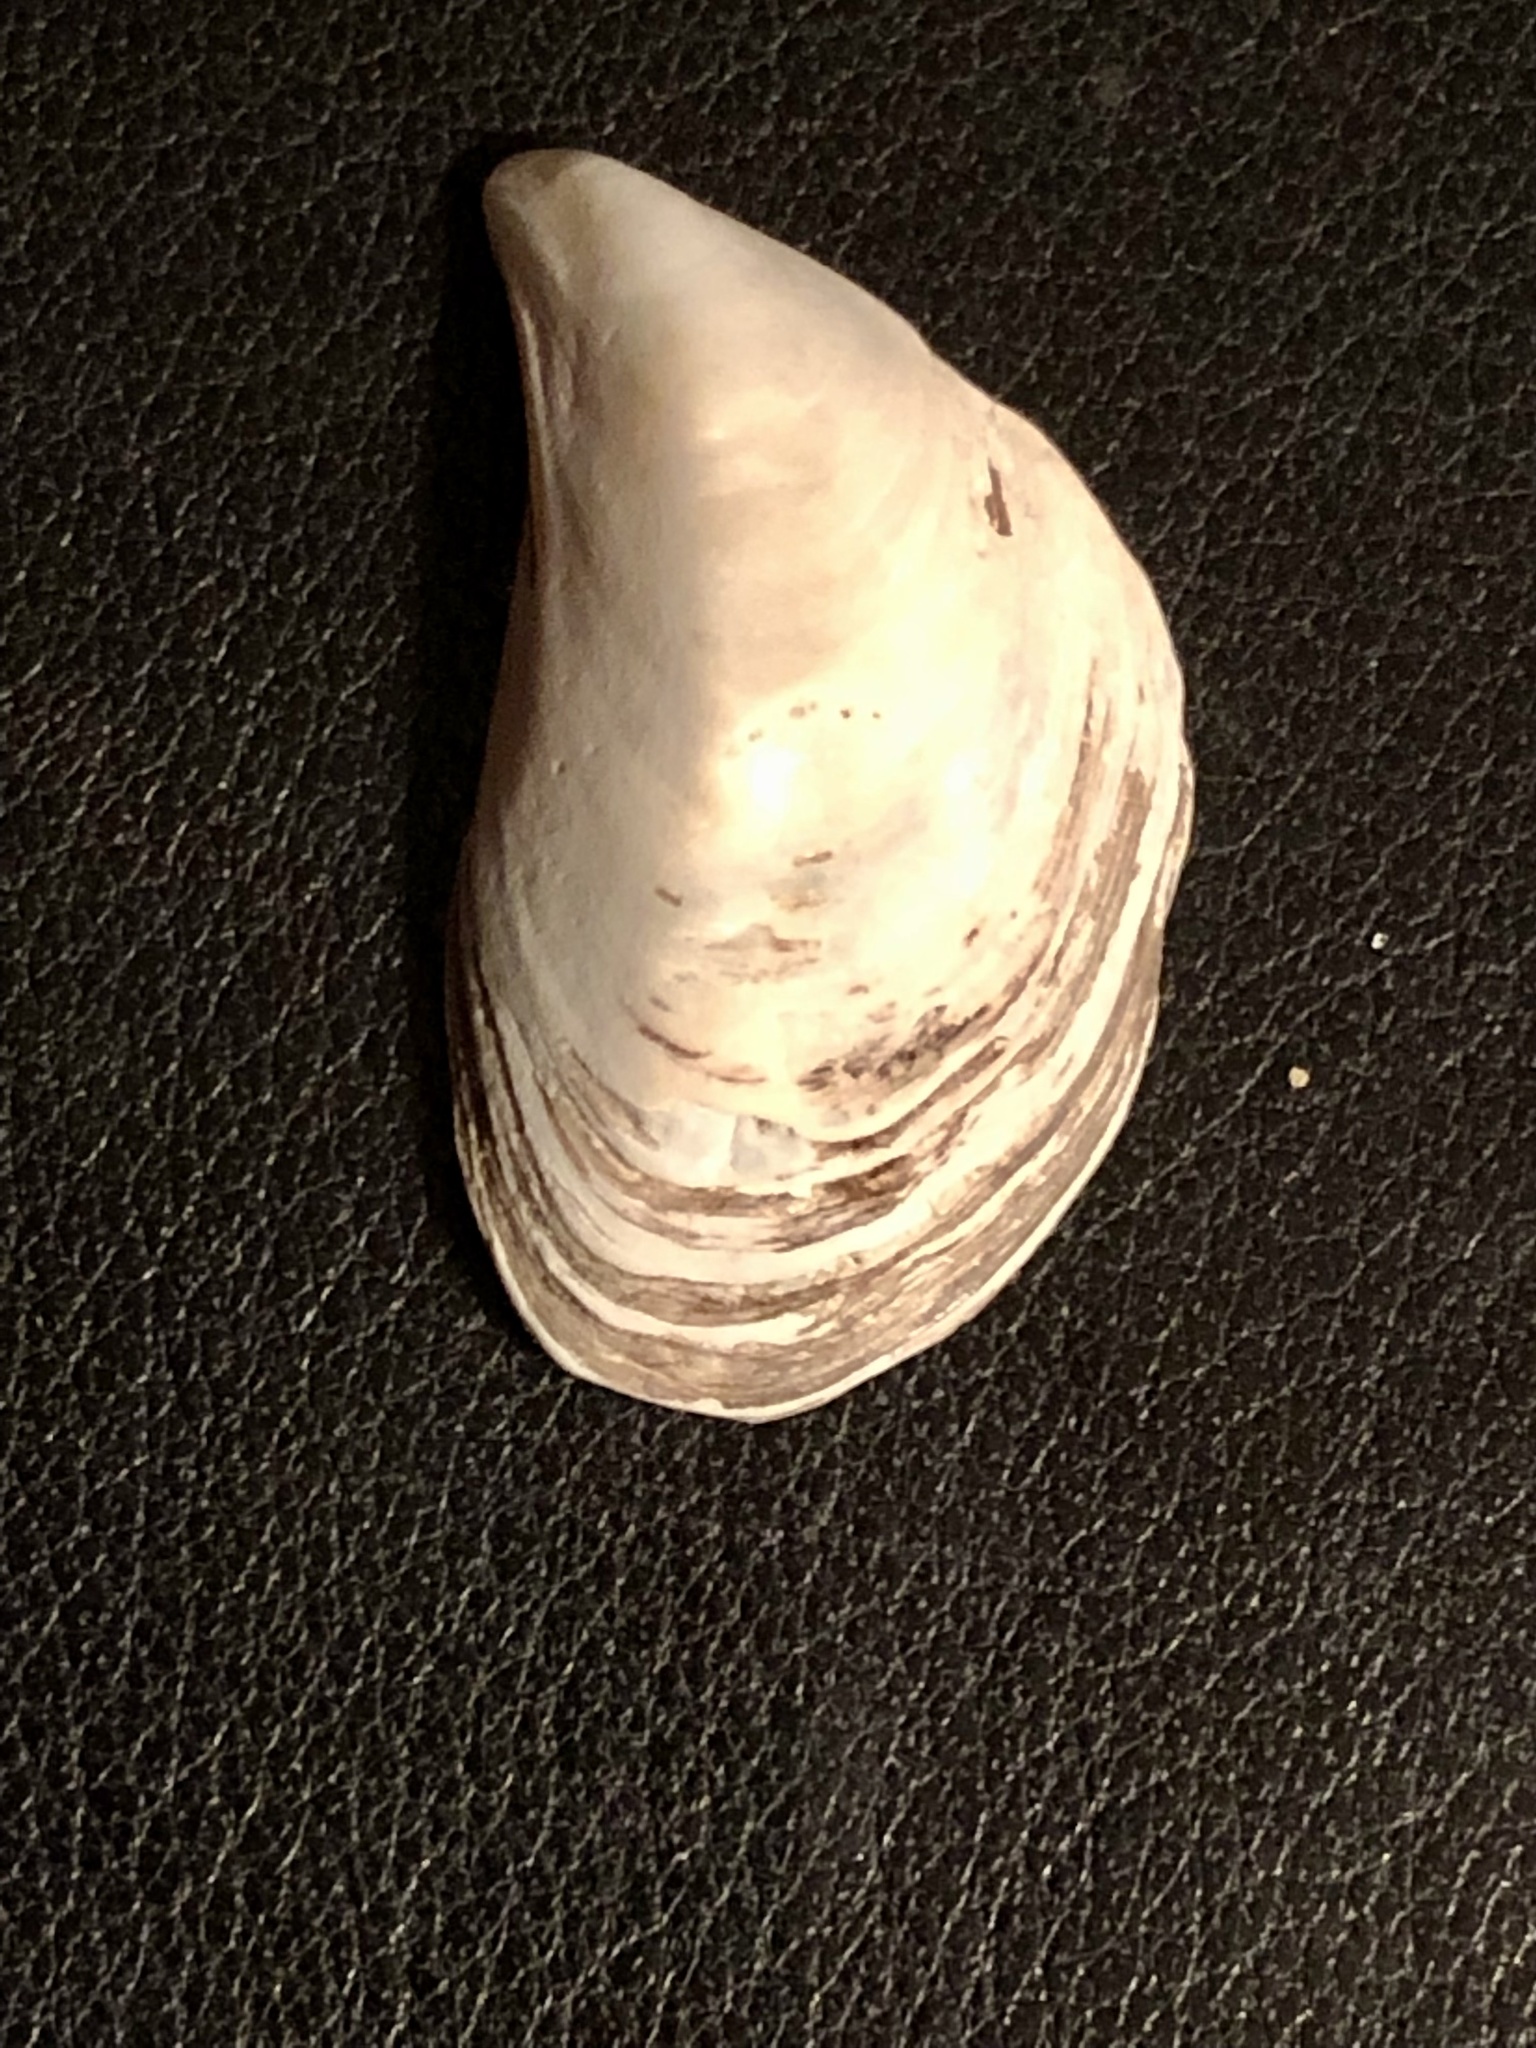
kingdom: Animalia
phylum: Mollusca
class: Bivalvia
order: Myida
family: Dreissenidae
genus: Dreissena
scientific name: Dreissena bugensis
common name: Quagga mussel
